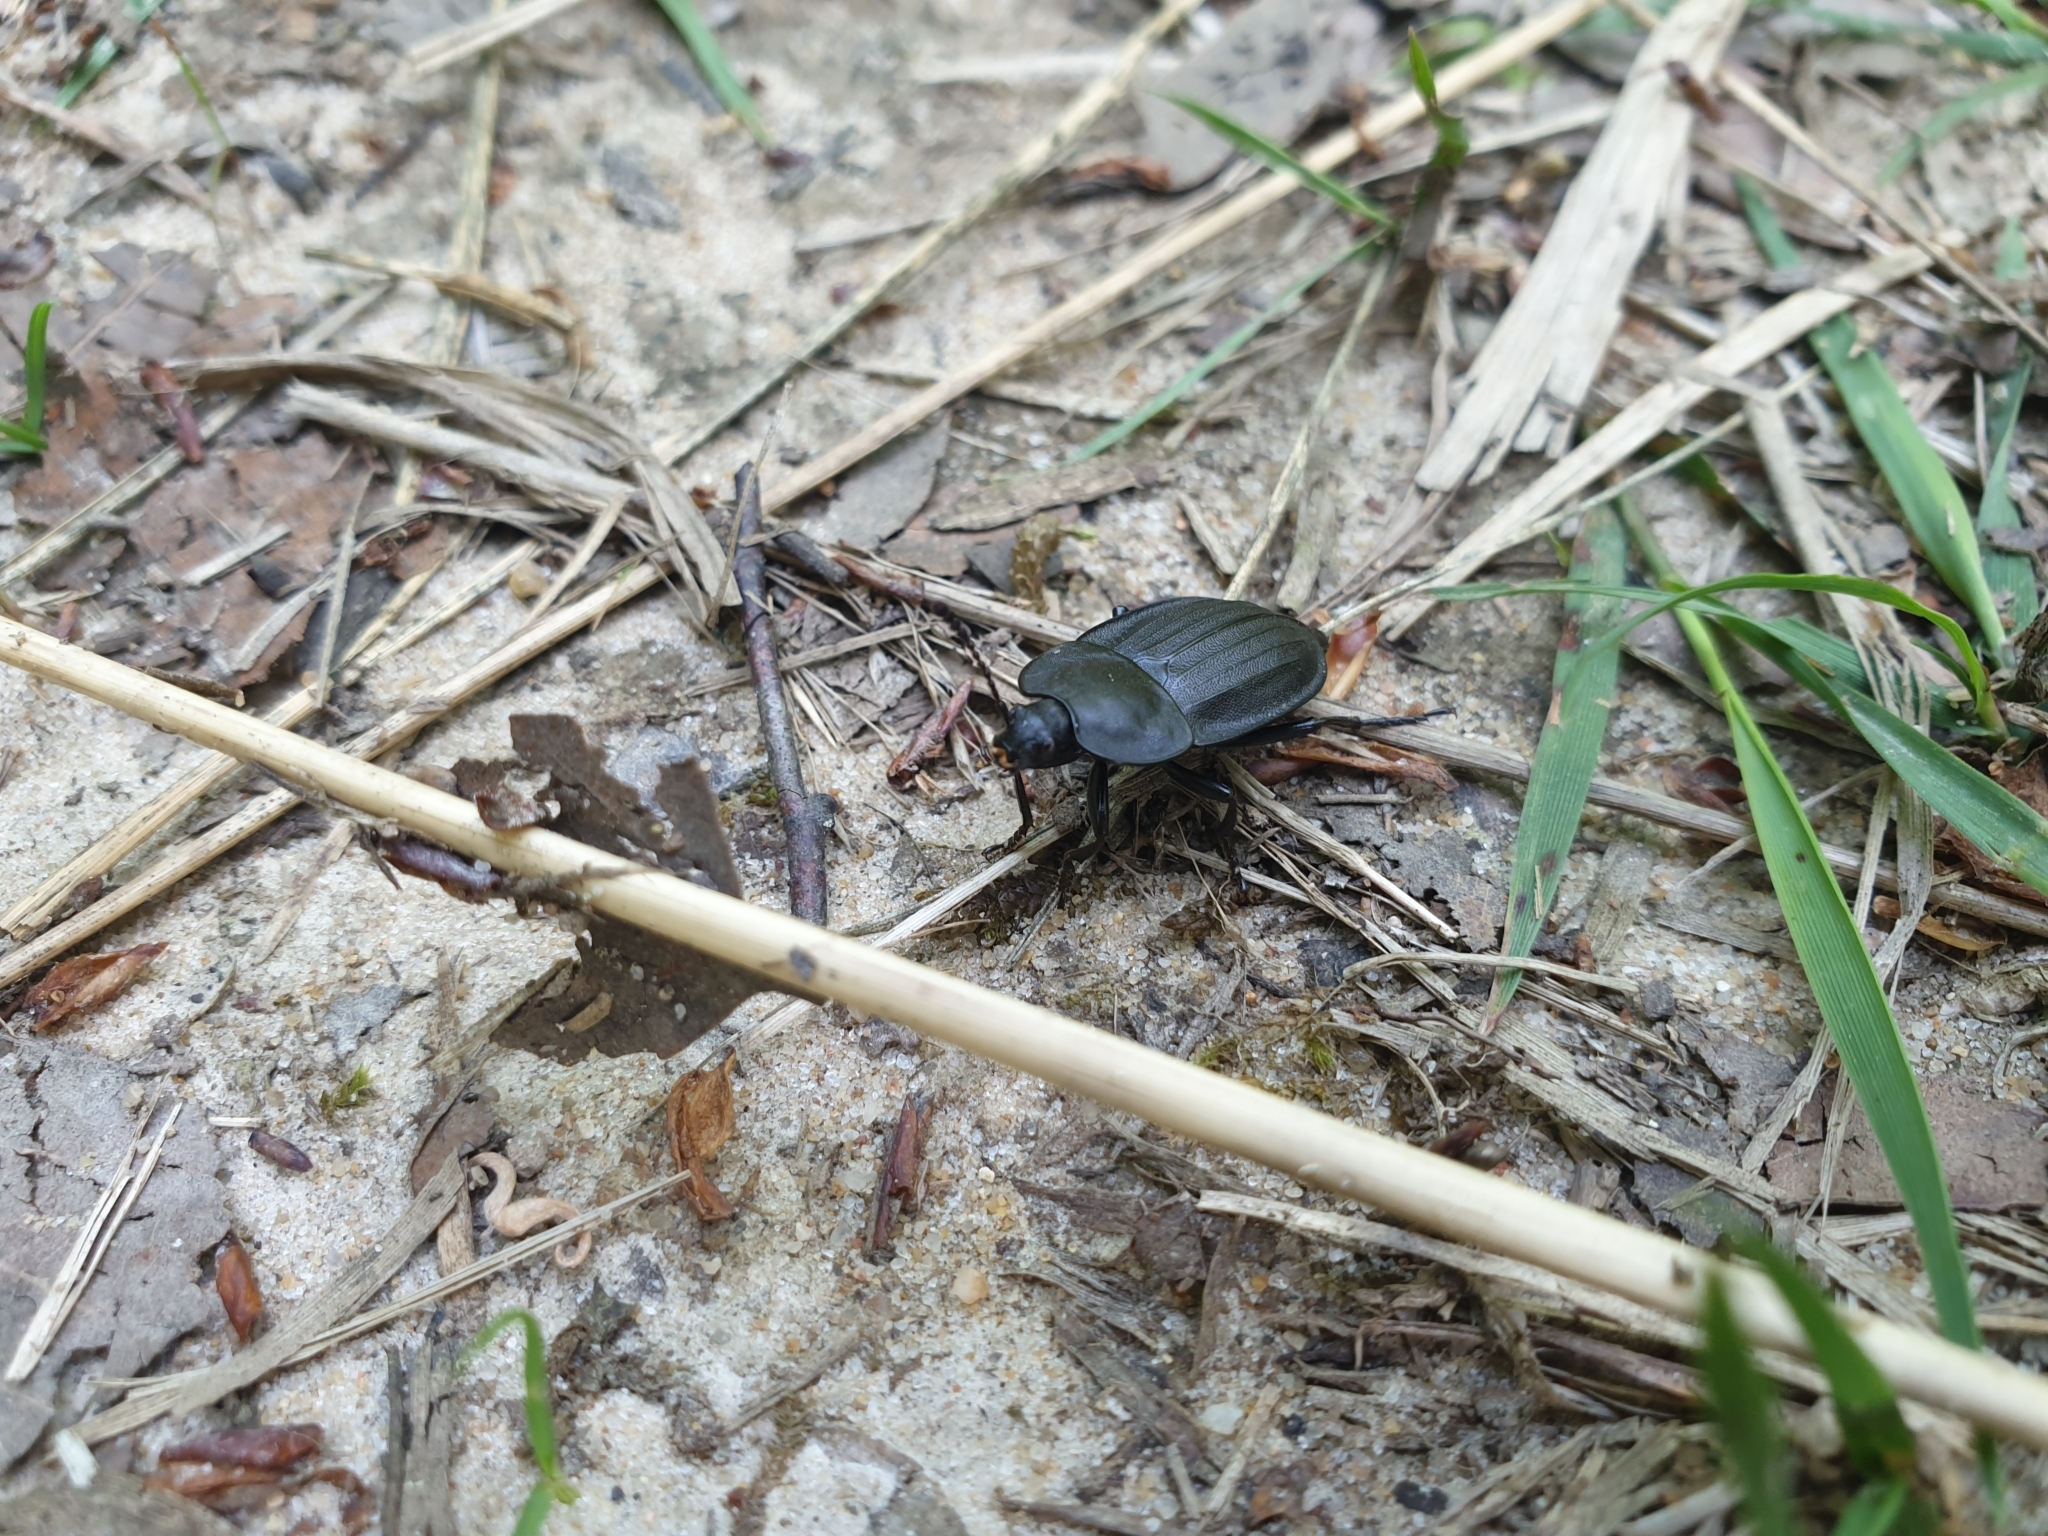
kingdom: Animalia
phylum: Arthropoda
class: Insecta
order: Coleoptera
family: Staphylinidae
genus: Silpha
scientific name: Silpha carinata
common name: Silphid beetle
